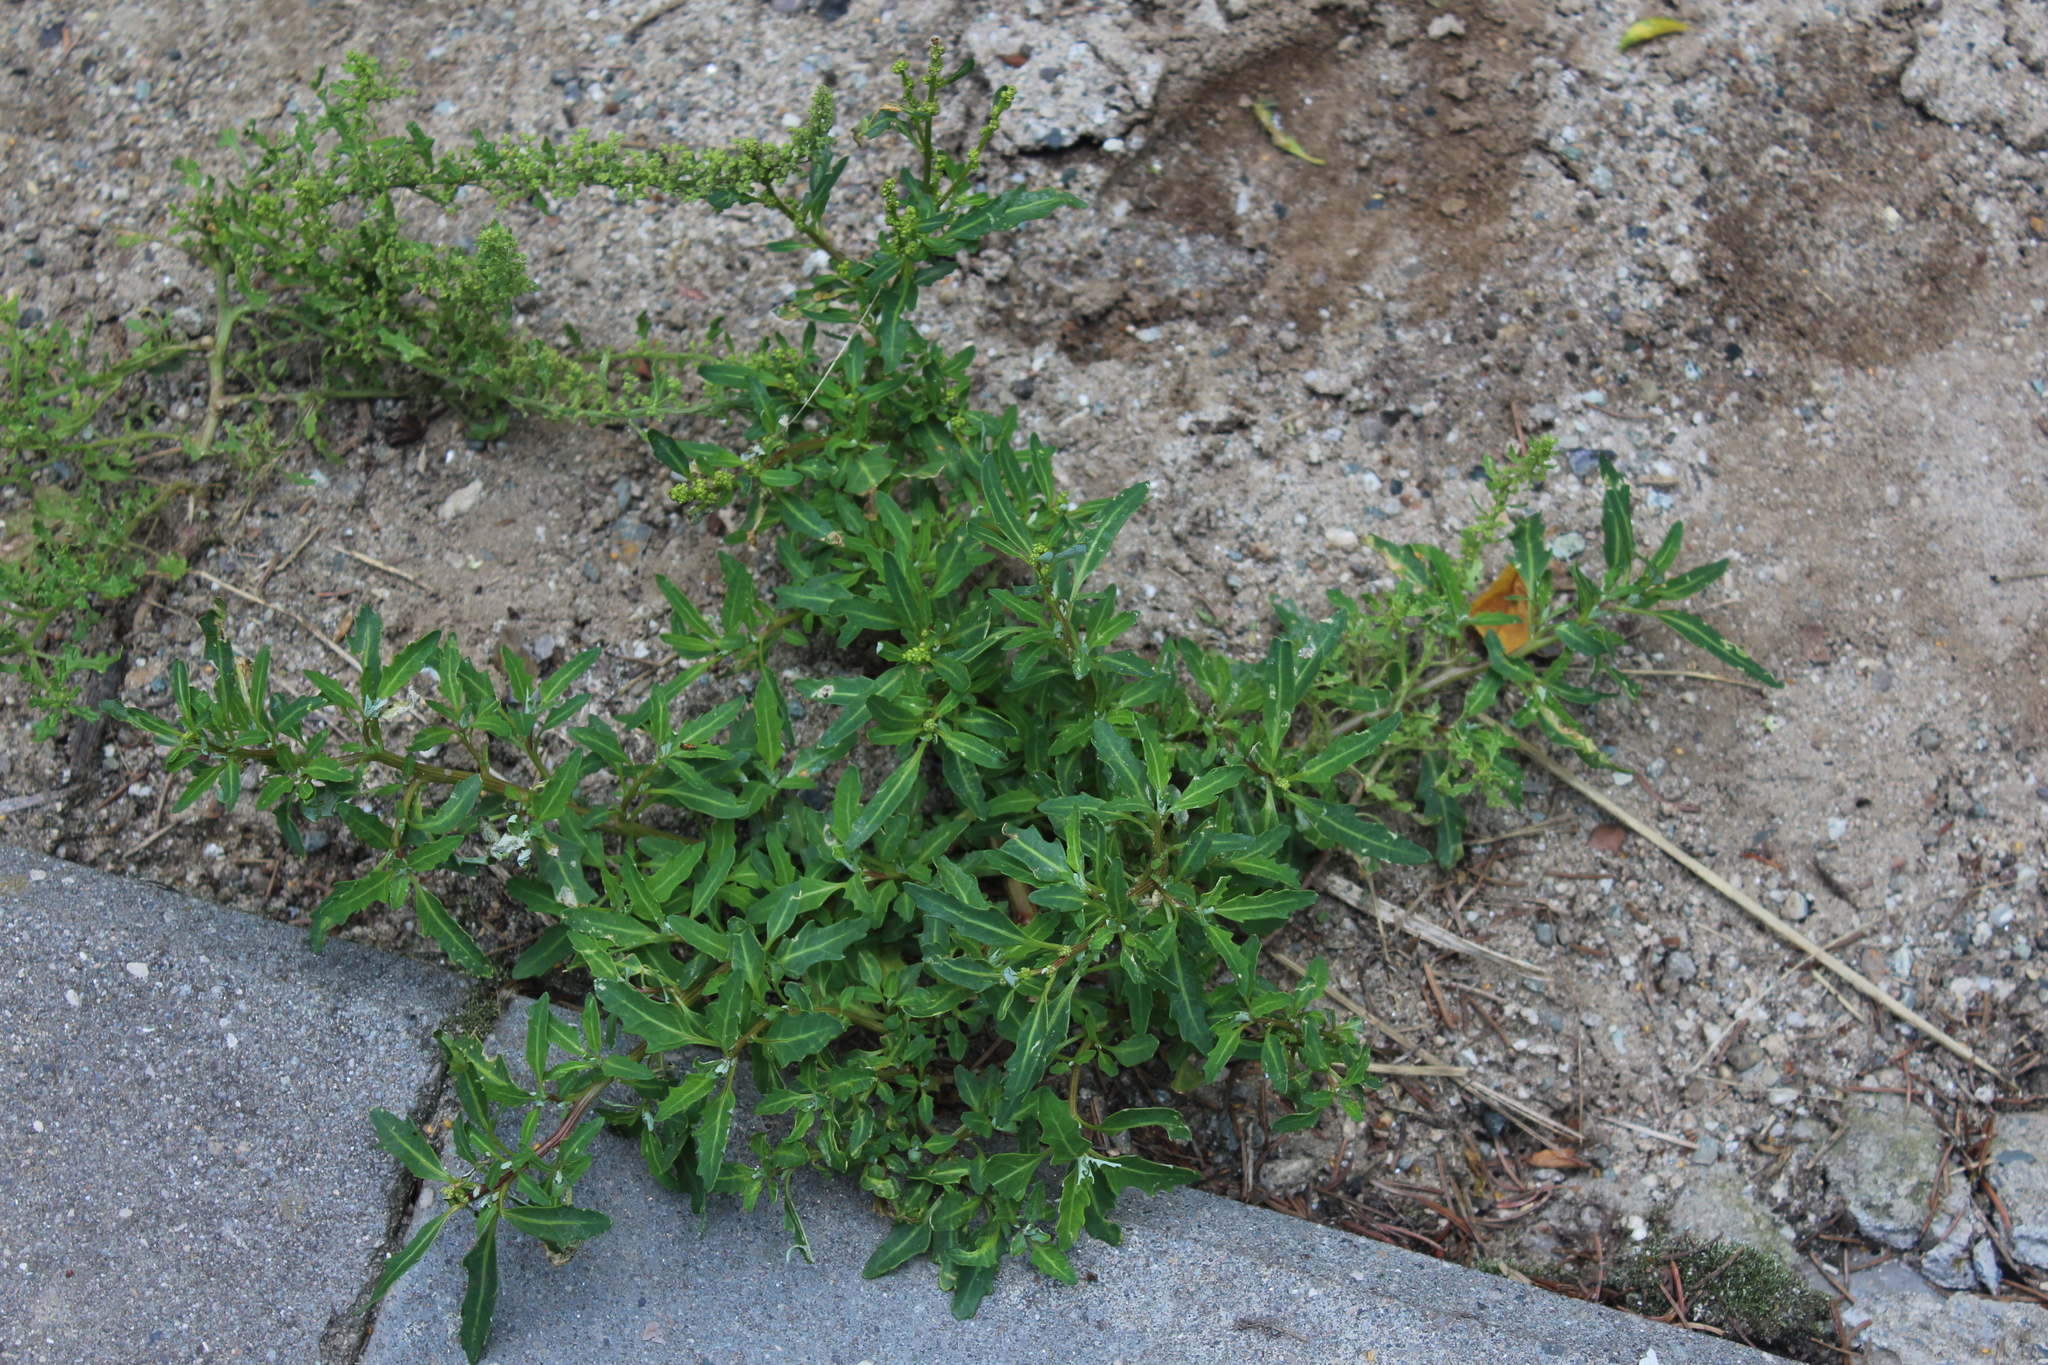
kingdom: Plantae
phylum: Tracheophyta
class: Magnoliopsida
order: Caryophyllales
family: Amaranthaceae
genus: Oxybasis
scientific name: Oxybasis glauca
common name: Glaucous goosefoot
